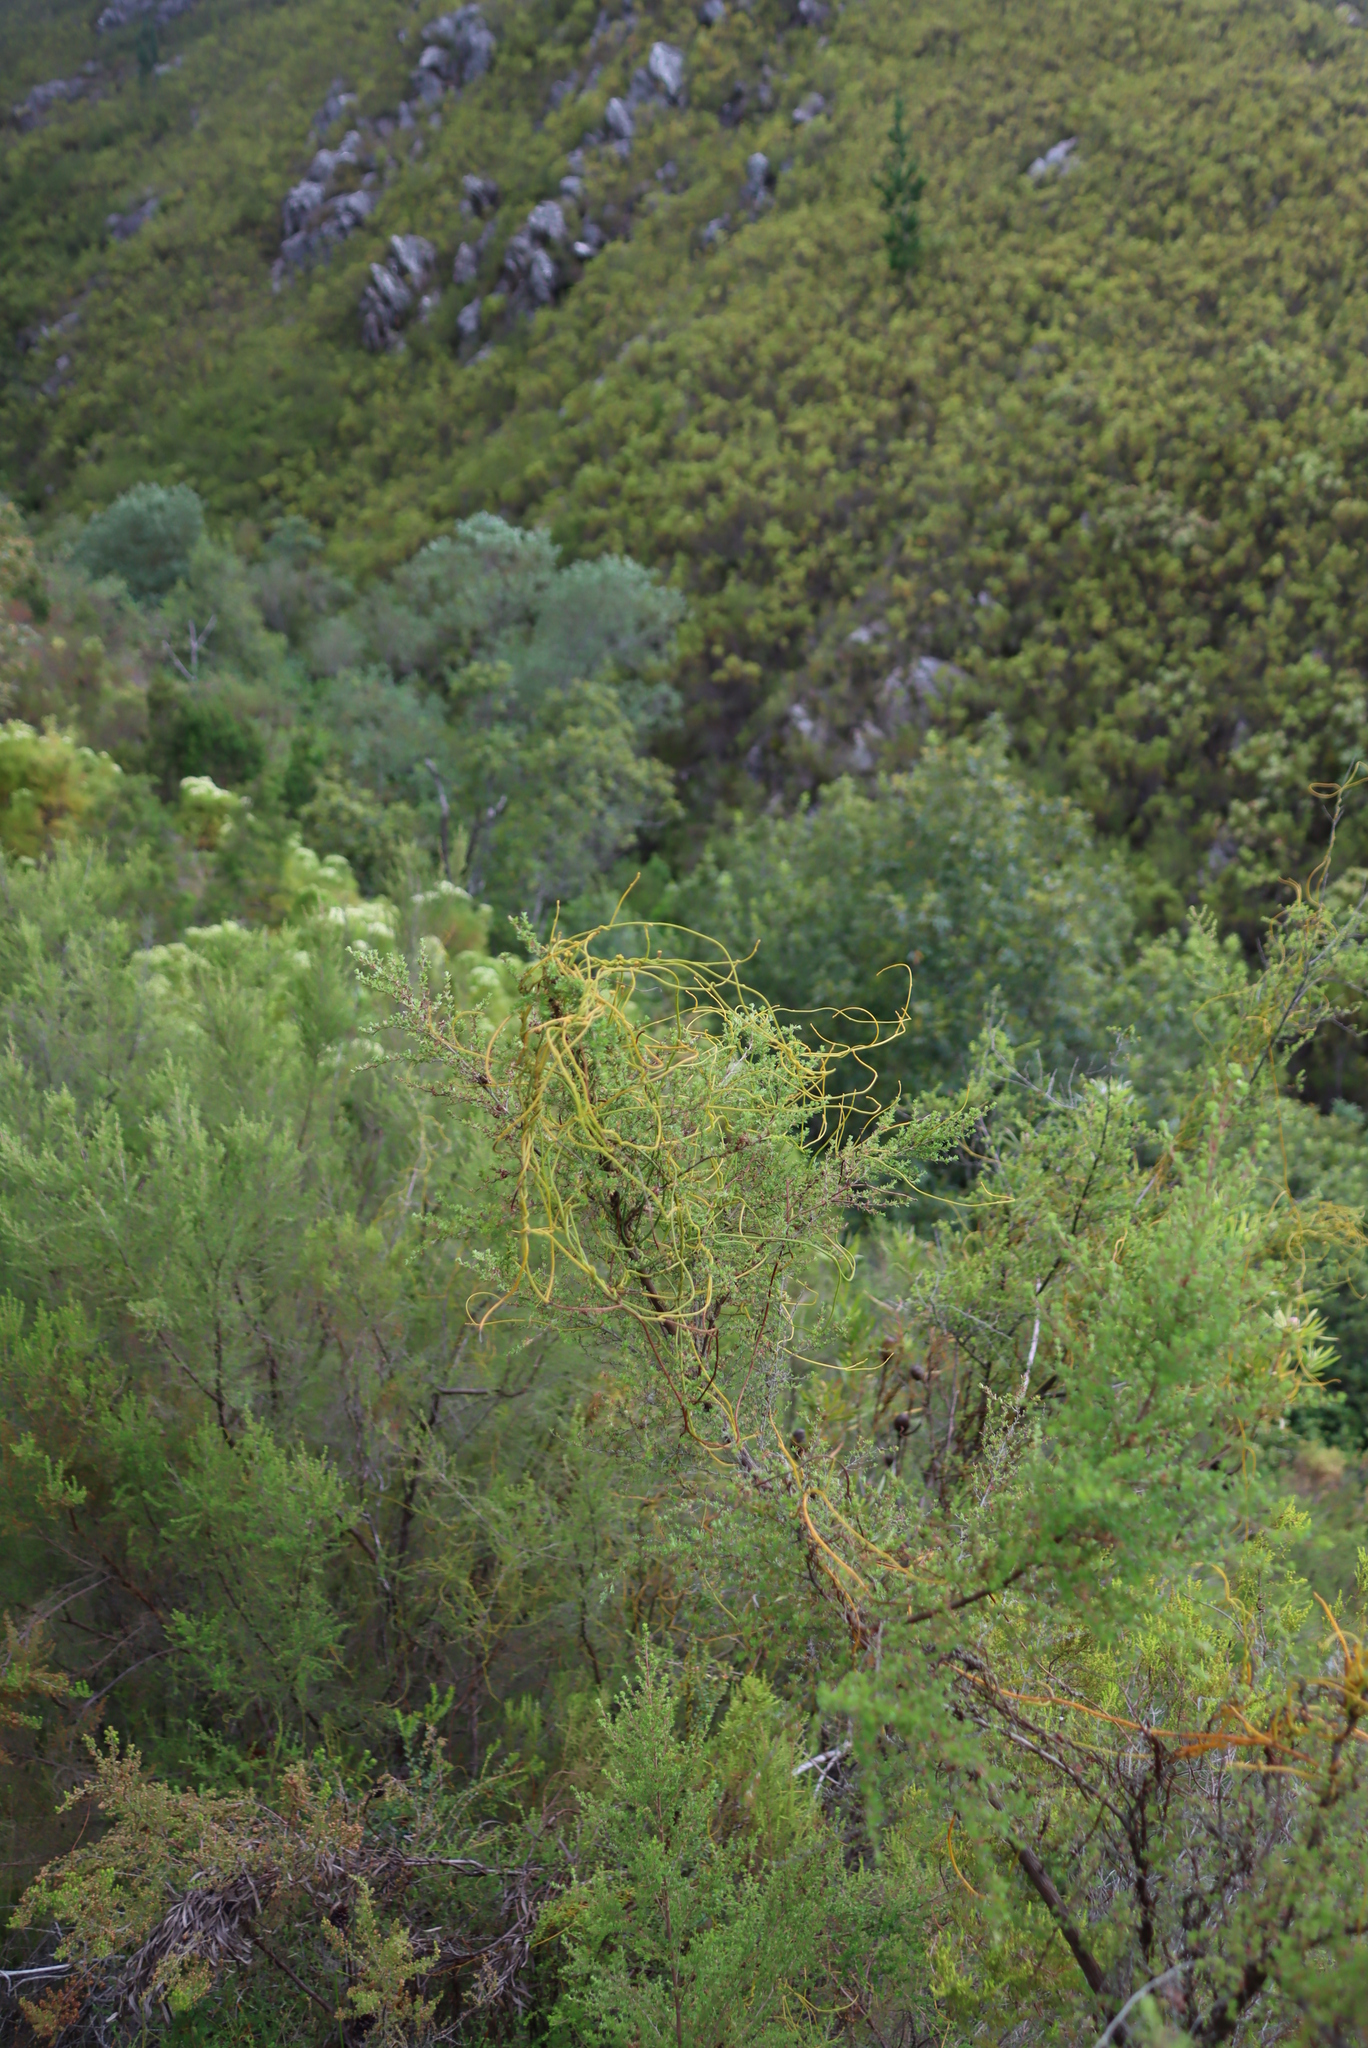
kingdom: Plantae
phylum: Tracheophyta
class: Magnoliopsida
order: Laurales
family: Lauraceae
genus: Cassytha
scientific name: Cassytha ciliolata
